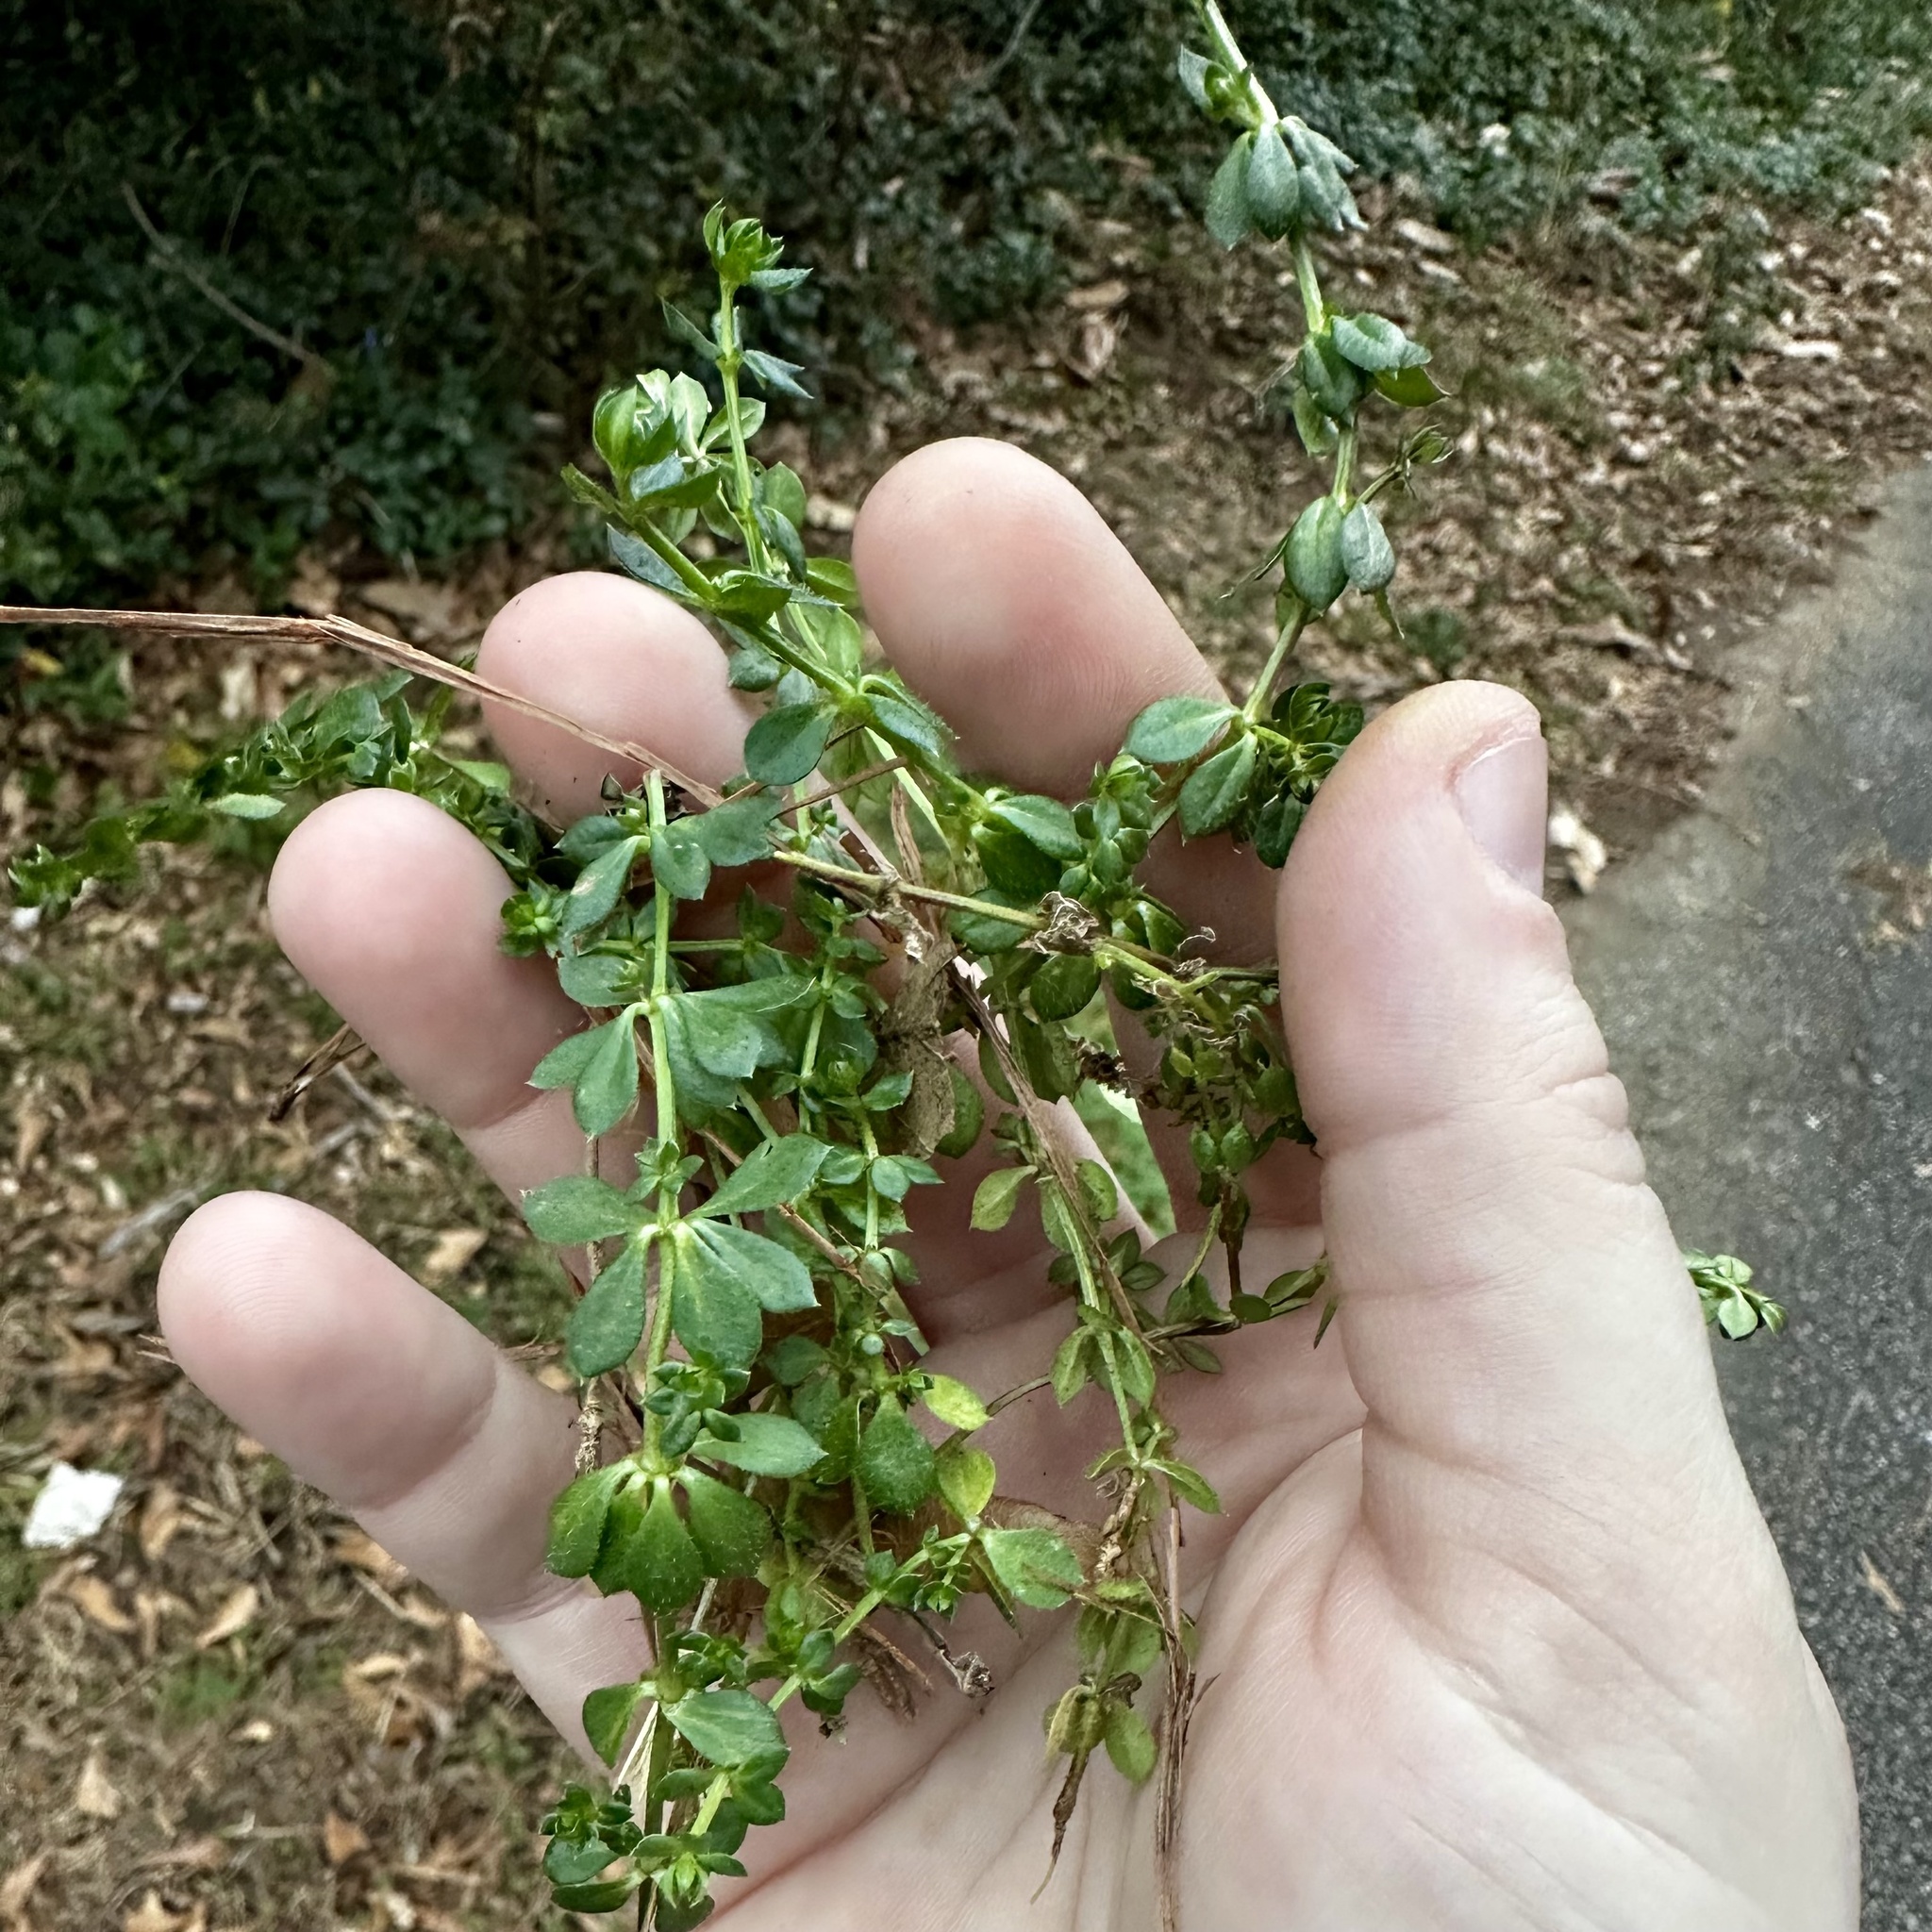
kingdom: Plantae
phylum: Tracheophyta
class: Magnoliopsida
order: Gentianales
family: Rubiaceae
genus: Sherardia
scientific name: Sherardia arvensis
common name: Field madder
